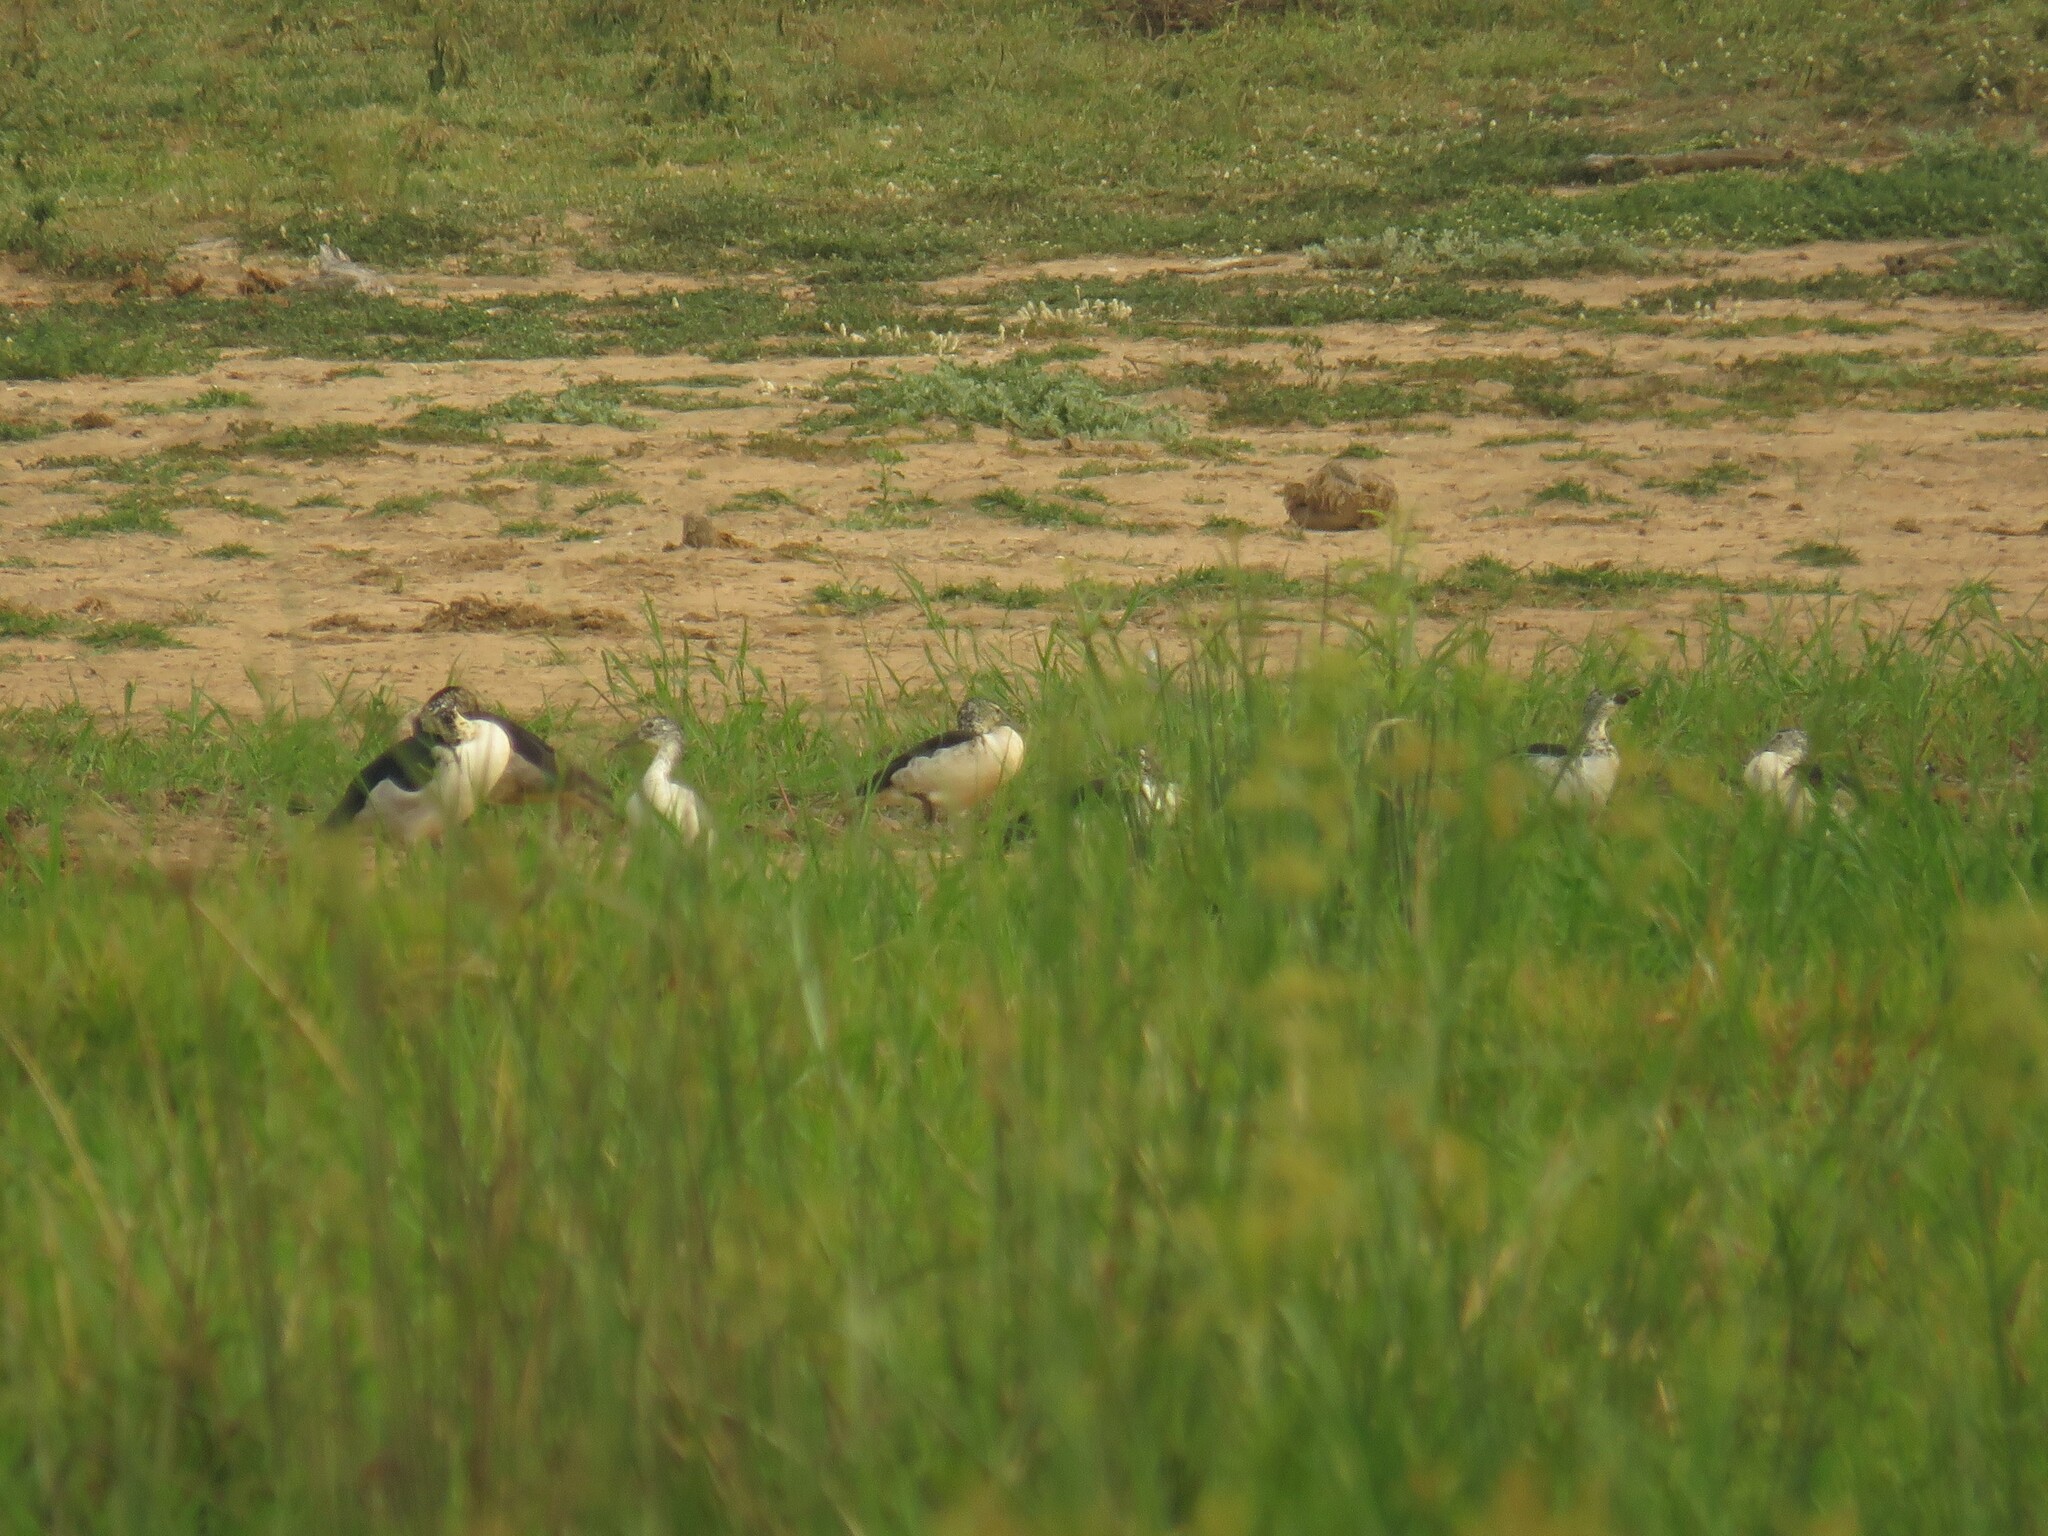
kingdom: Animalia
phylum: Chordata
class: Aves
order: Anseriformes
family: Anatidae
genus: Sarkidiornis
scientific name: Sarkidiornis melanotos
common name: Comb duck
